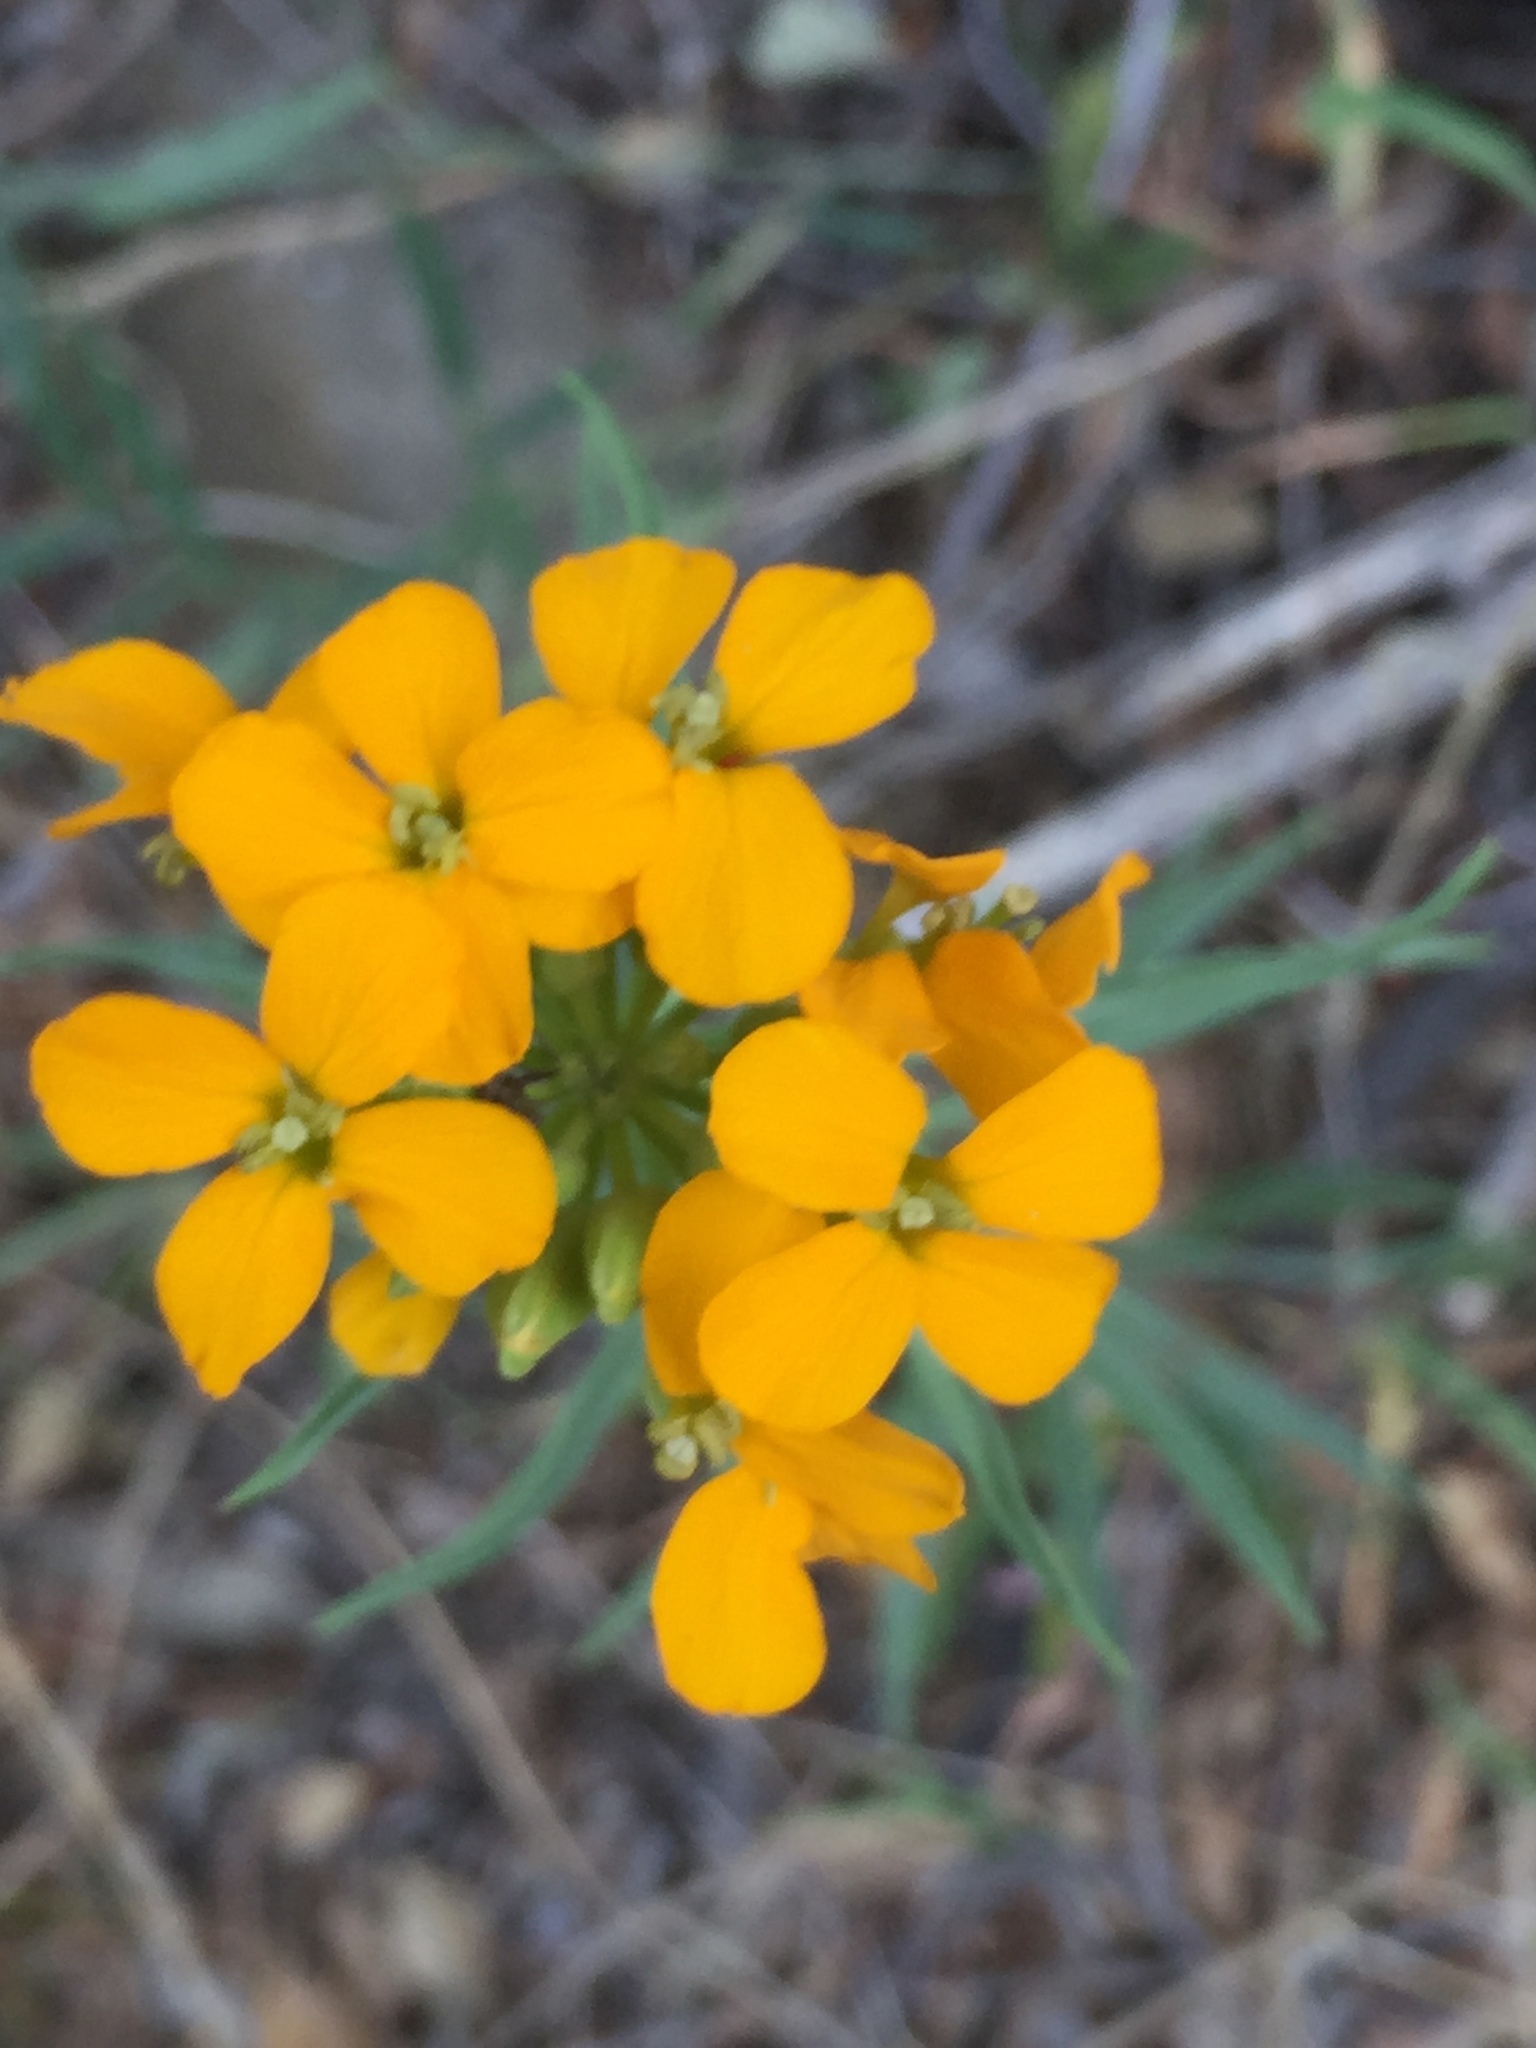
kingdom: Plantae
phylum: Tracheophyta
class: Magnoliopsida
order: Brassicales
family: Brassicaceae
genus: Erysimum
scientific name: Erysimum capitatum
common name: Western wallflower
